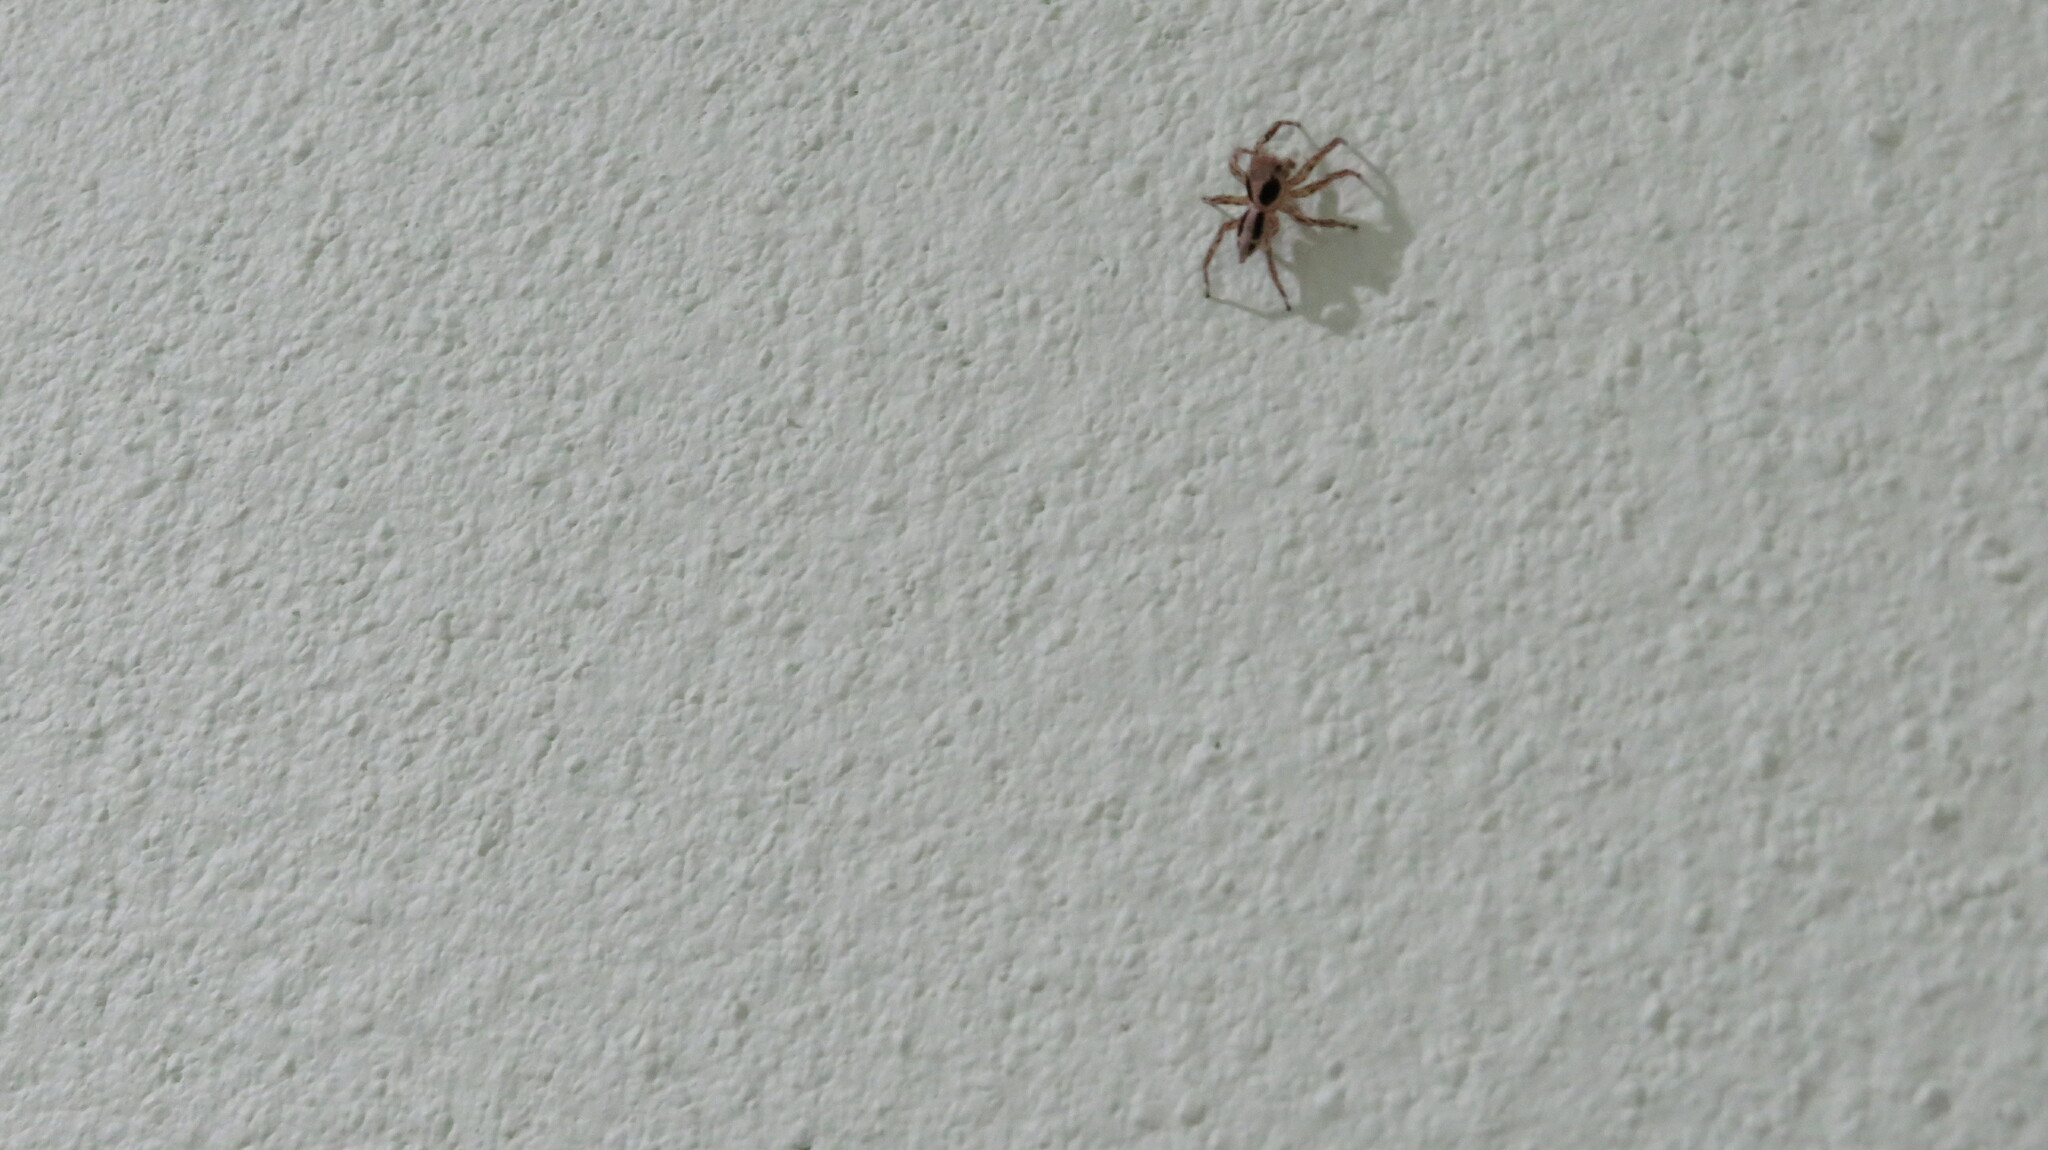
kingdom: Animalia
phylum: Arthropoda
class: Arachnida
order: Araneae
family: Salticidae
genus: Plexippus
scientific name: Plexippus petersi
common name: Jumping spider
